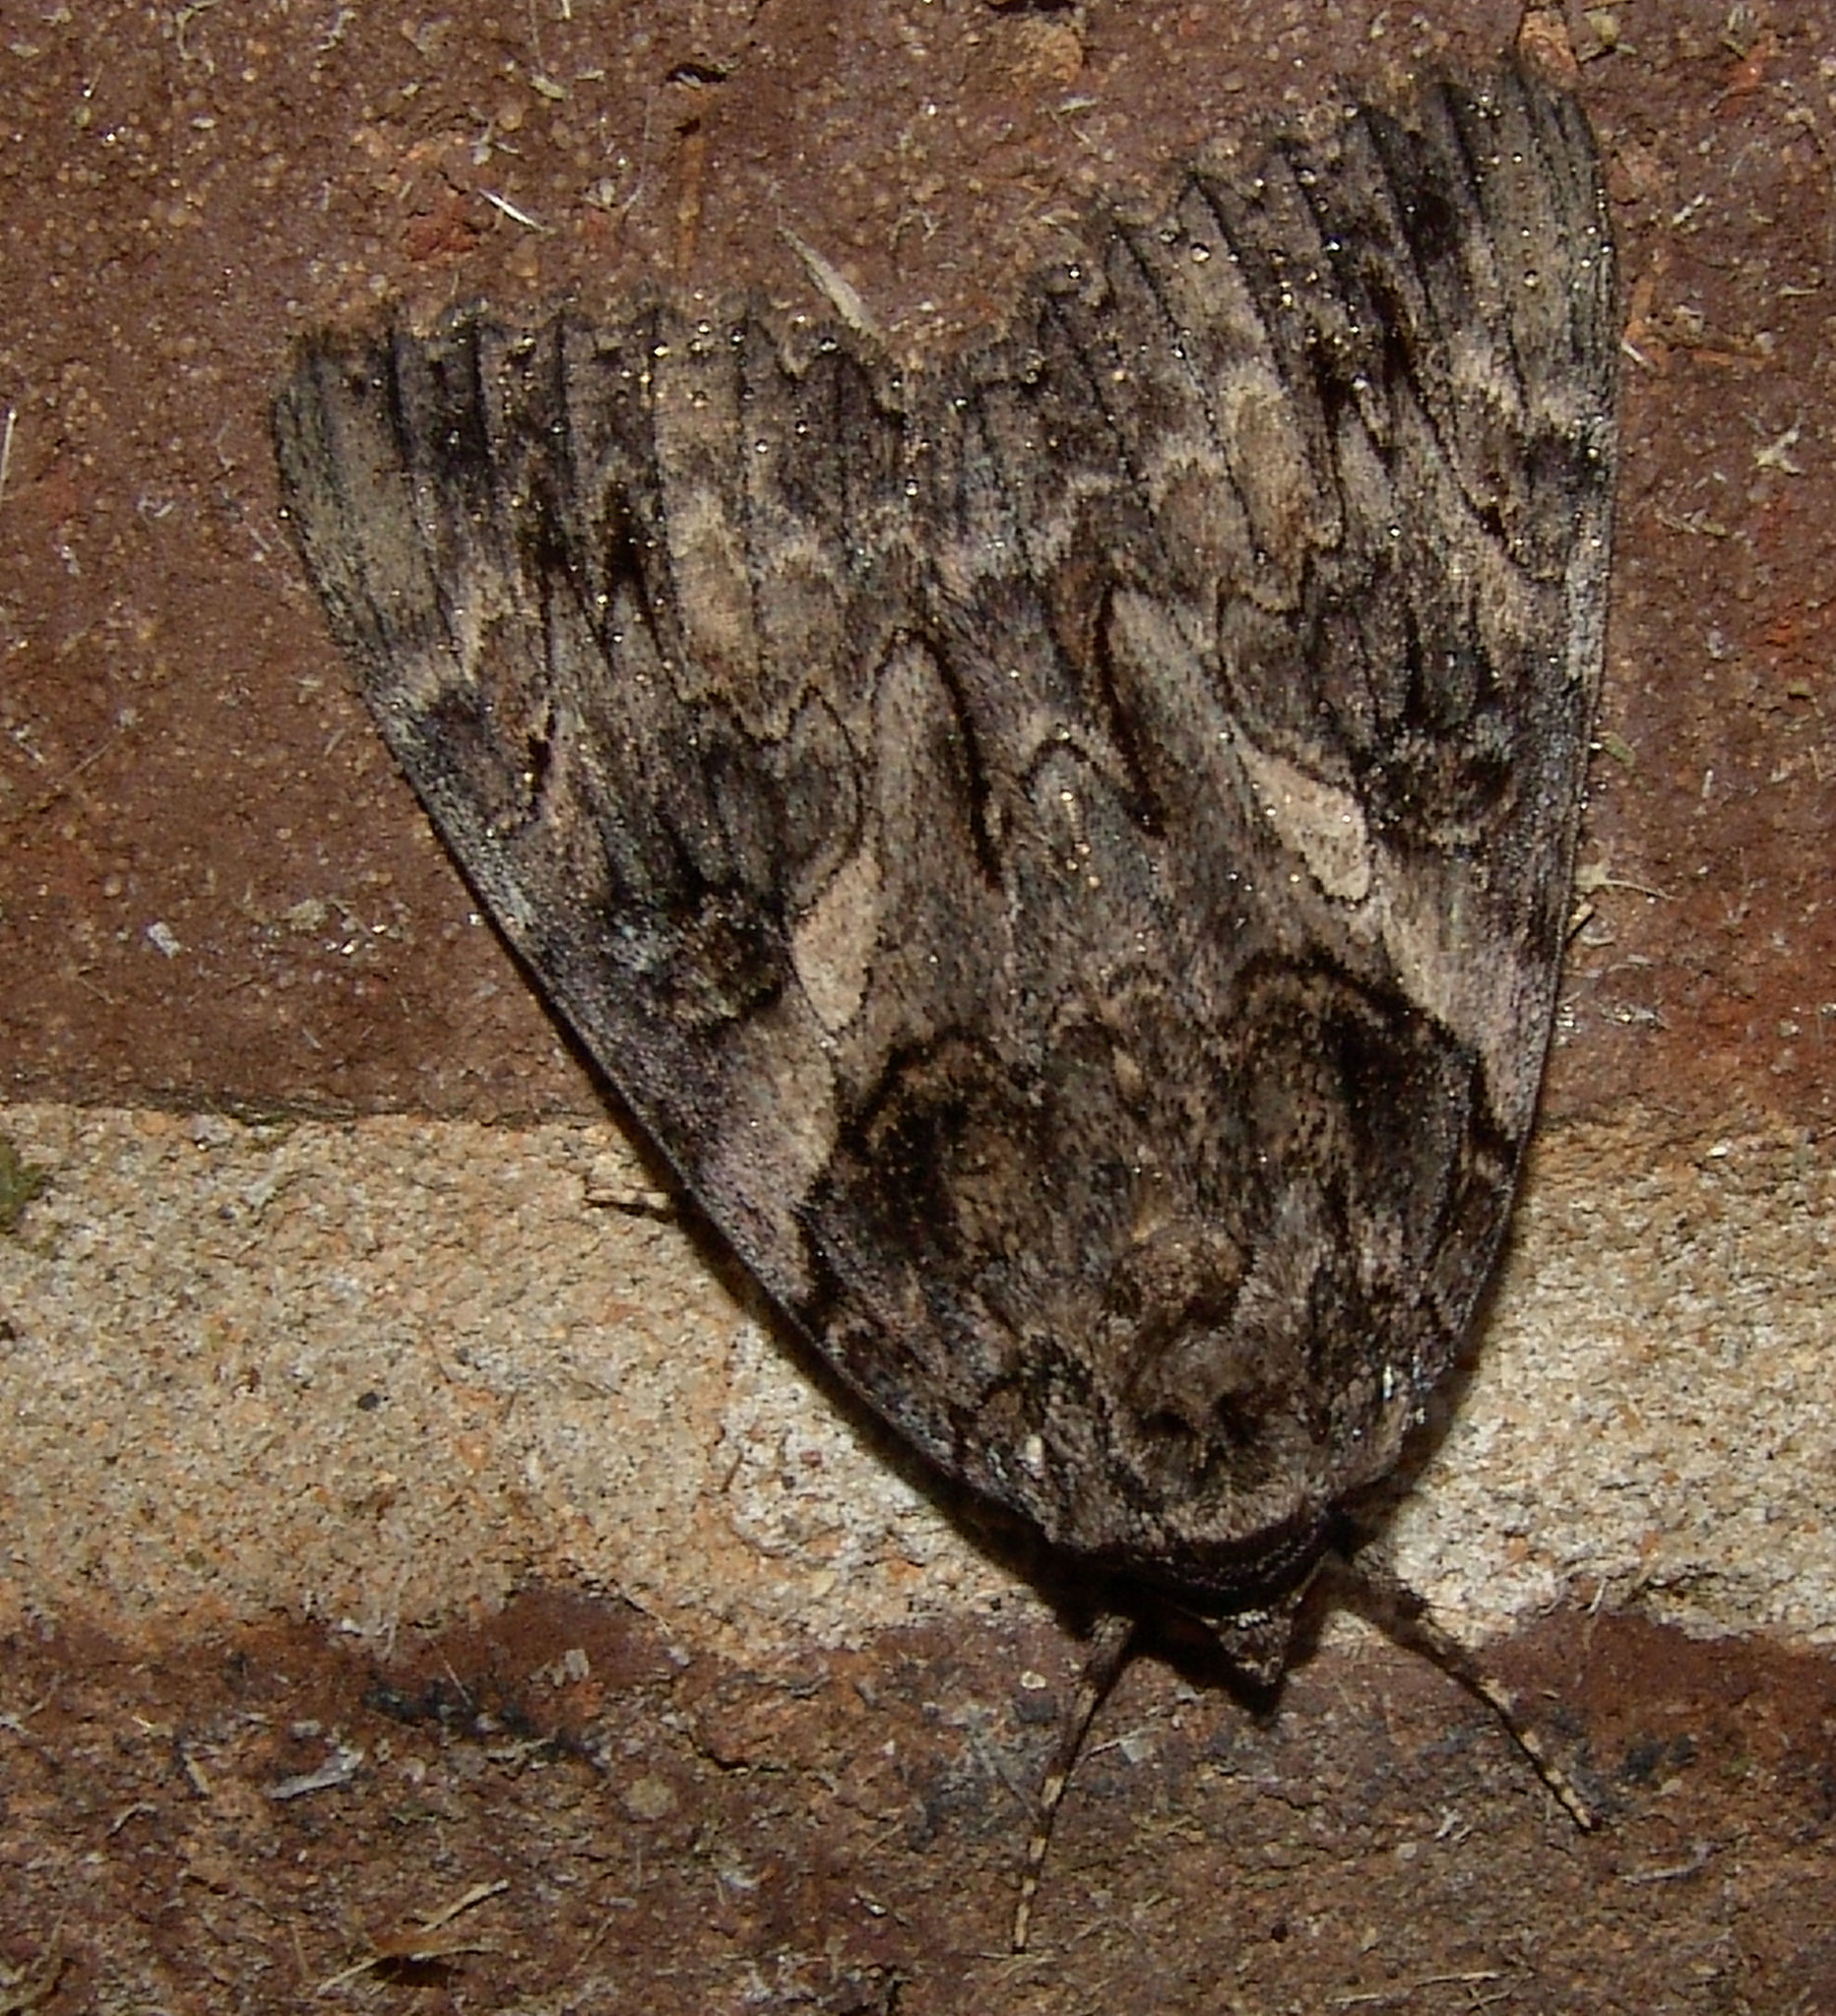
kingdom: Animalia
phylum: Arthropoda
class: Insecta
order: Lepidoptera
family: Erebidae
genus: Catocala
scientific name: Catocala piatrix
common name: The penitent underwing
